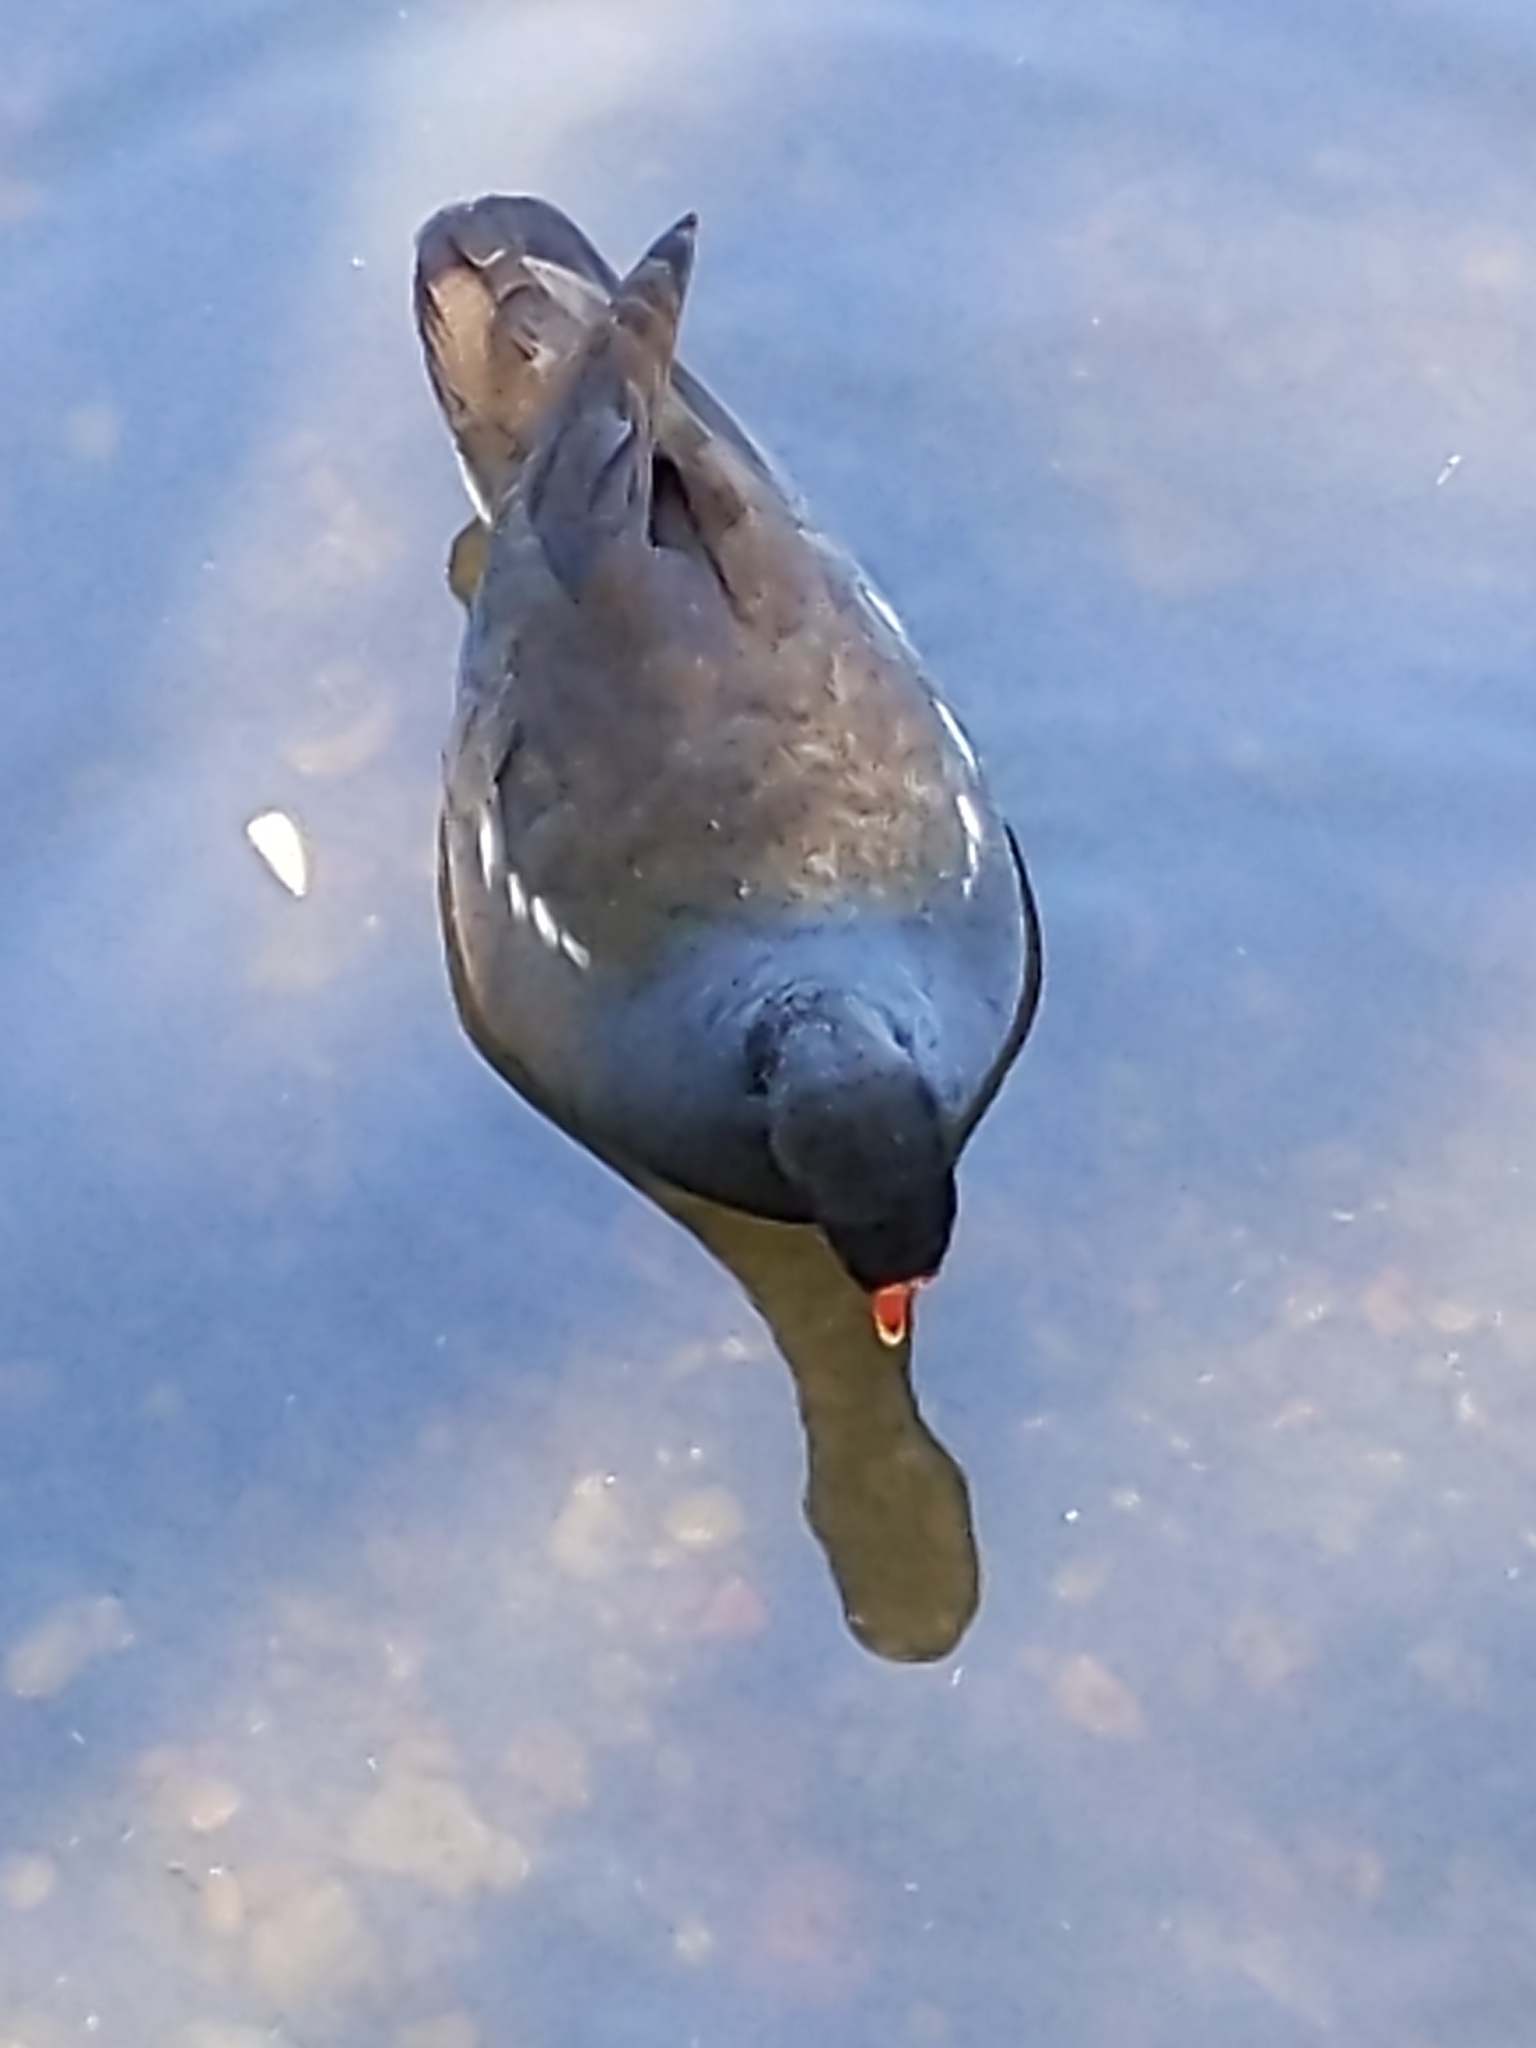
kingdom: Animalia
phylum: Chordata
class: Aves
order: Gruiformes
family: Rallidae
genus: Gallinula
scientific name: Gallinula chloropus
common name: Common moorhen
